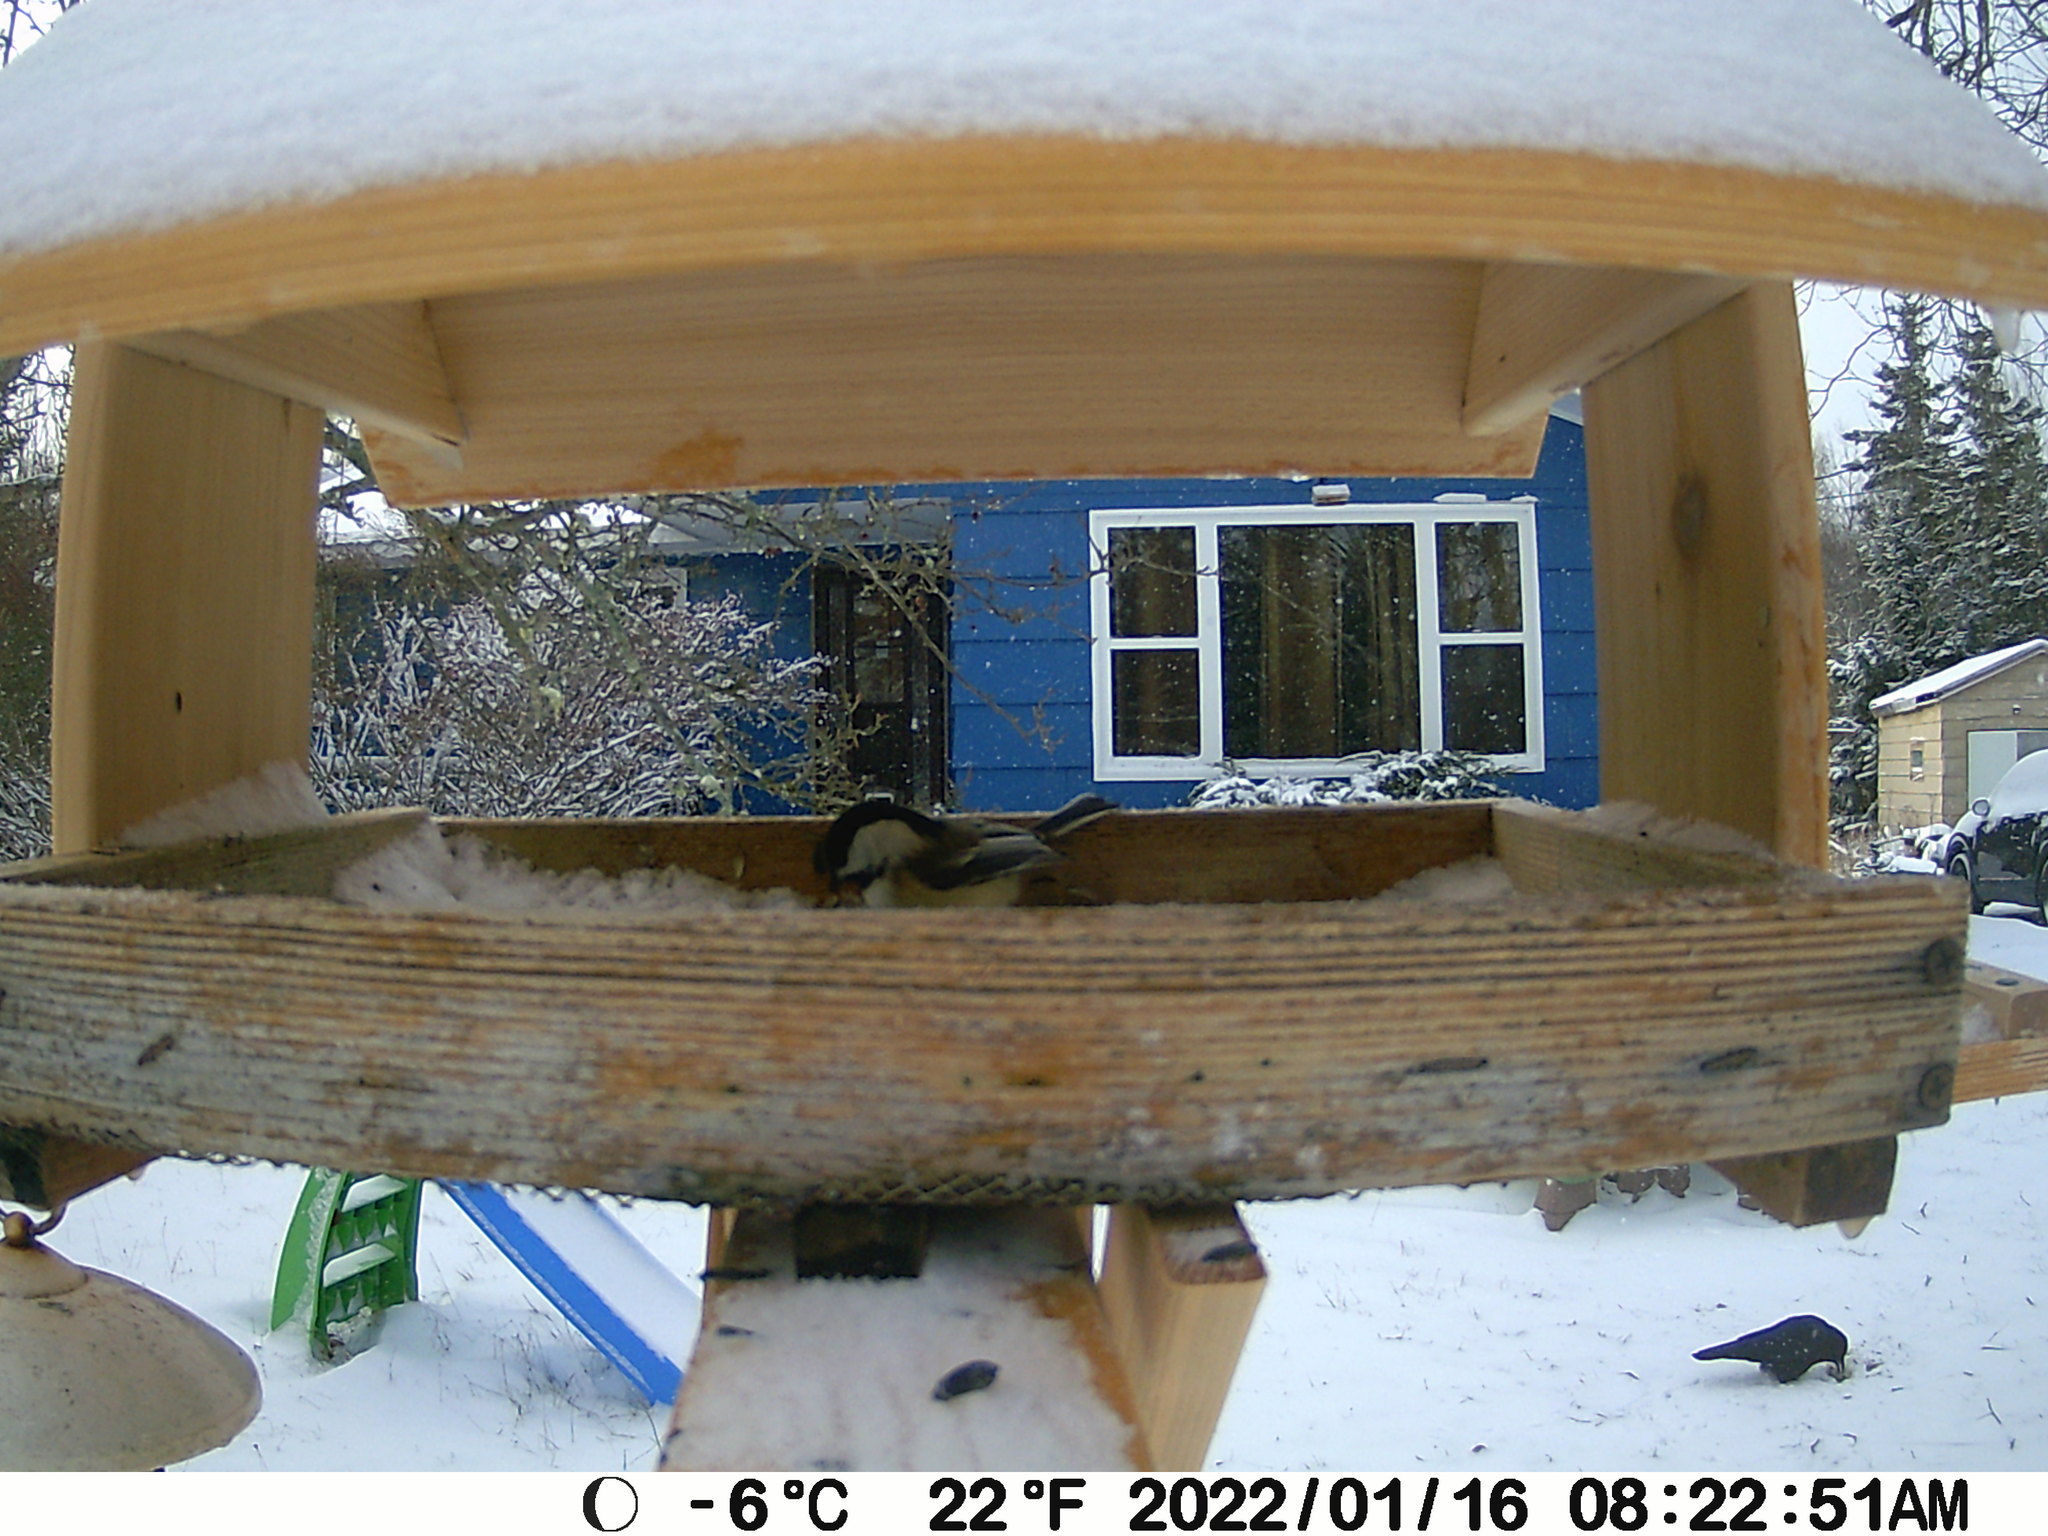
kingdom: Animalia
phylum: Chordata
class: Aves
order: Passeriformes
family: Corvidae
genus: Corvus
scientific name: Corvus brachyrhynchos
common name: American crow
